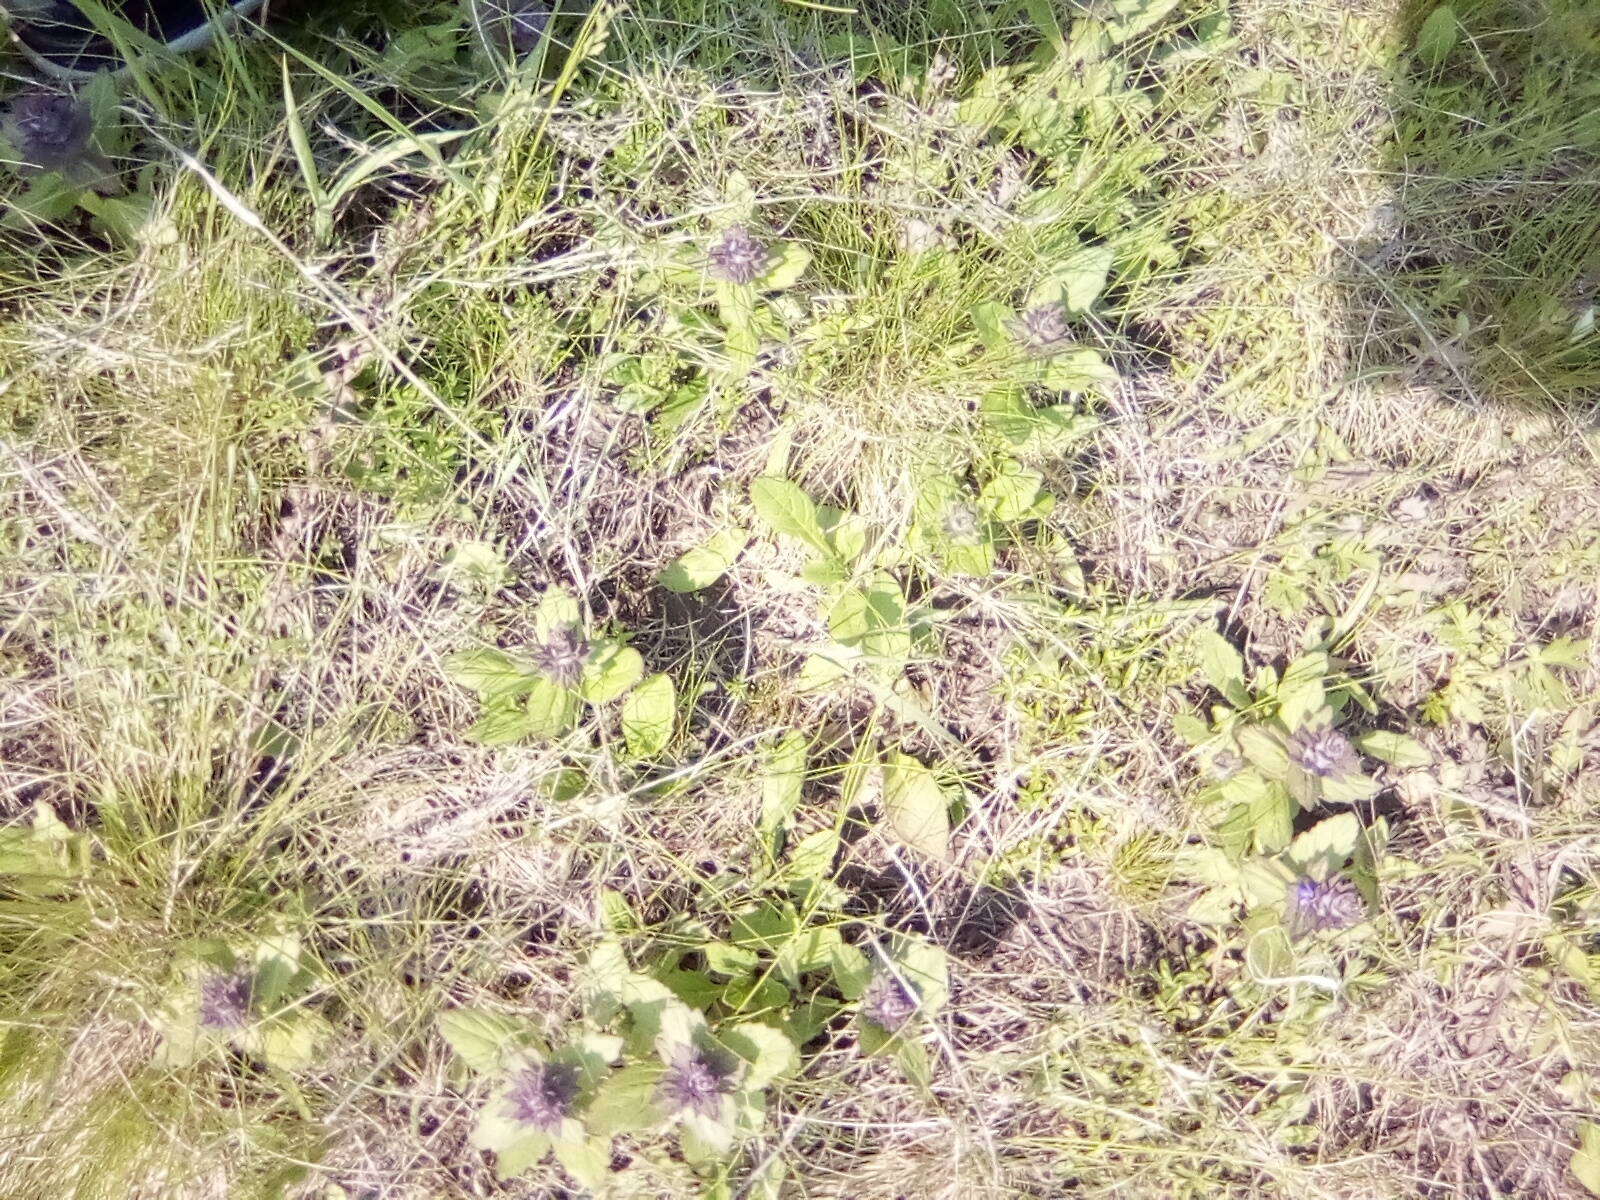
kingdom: Plantae
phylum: Tracheophyta
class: Magnoliopsida
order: Lamiales
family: Lamiaceae
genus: Ajuga
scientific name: Ajuga genevensis
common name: Blue bugle
